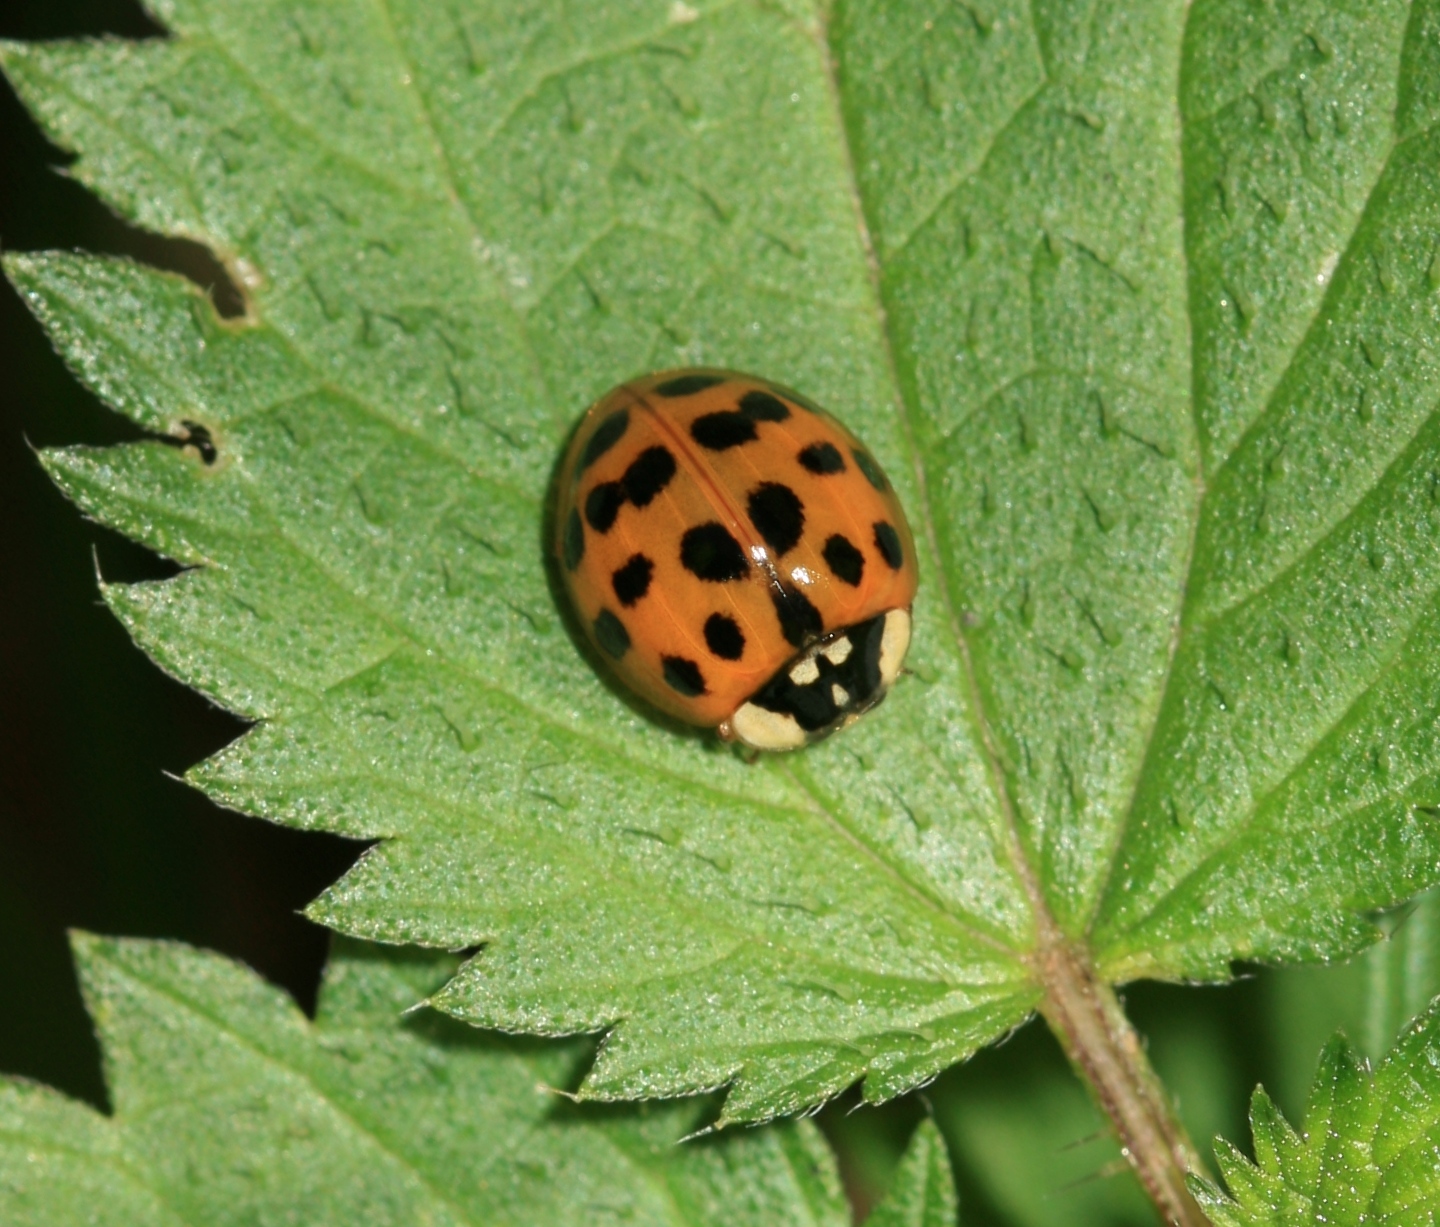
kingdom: Animalia
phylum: Arthropoda
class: Insecta
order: Coleoptera
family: Coccinellidae
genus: Harmonia
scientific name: Harmonia axyridis
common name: Harlequin ladybird
